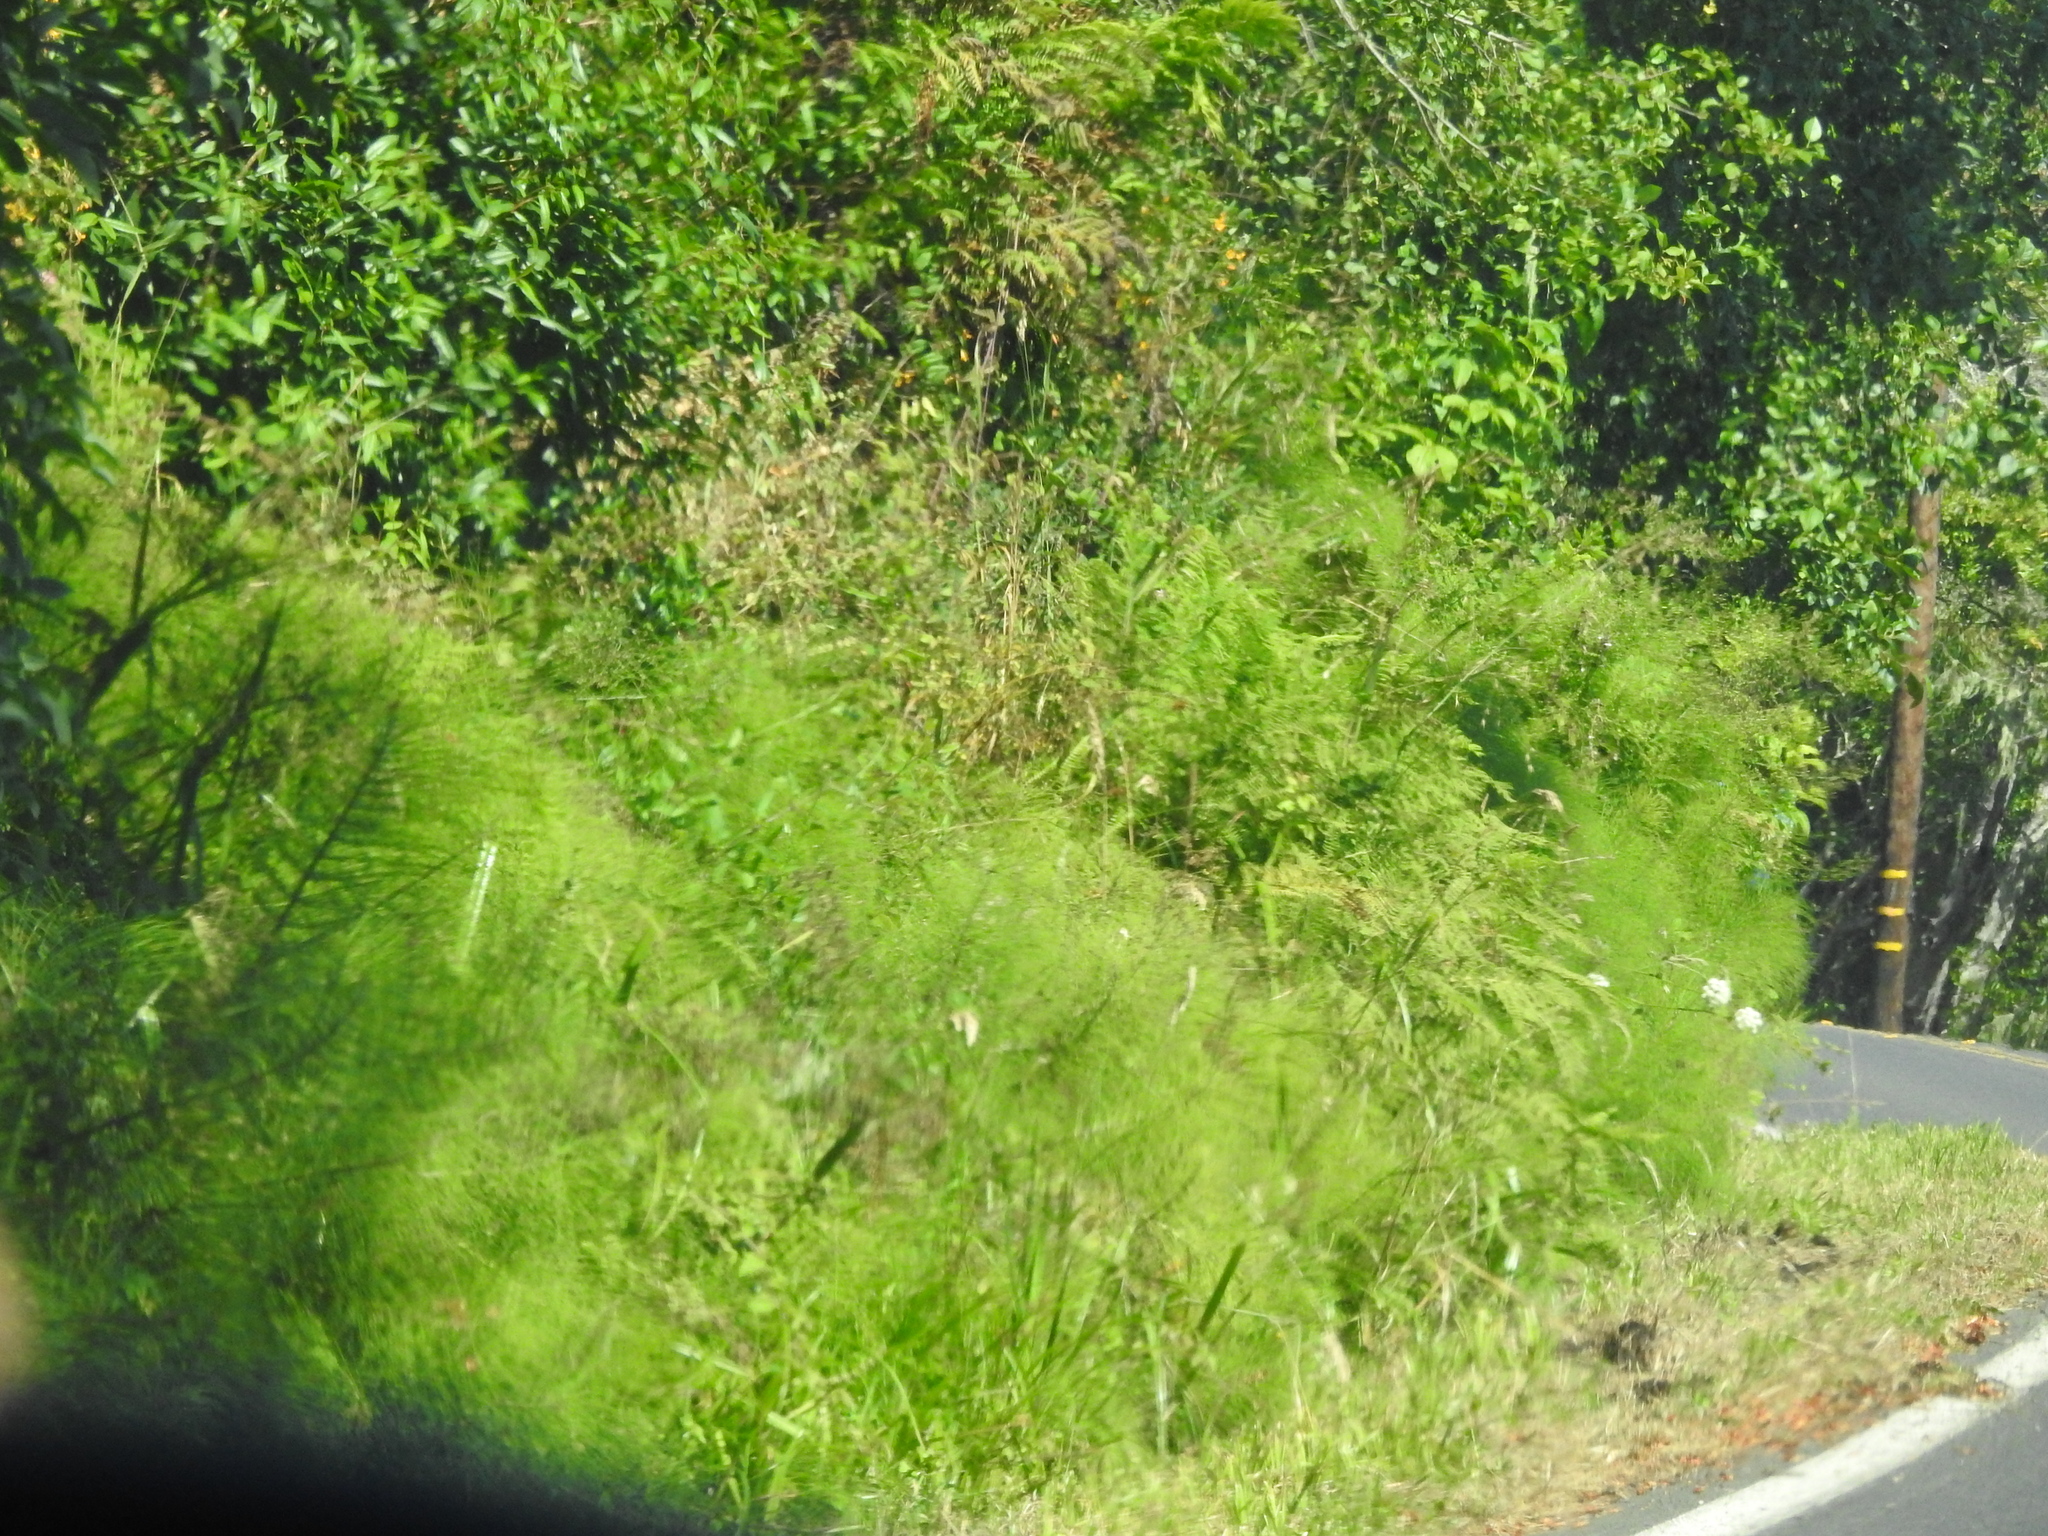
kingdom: Plantae
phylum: Tracheophyta
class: Polypodiopsida
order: Equisetales
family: Equisetaceae
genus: Equisetum
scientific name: Equisetum telmateia
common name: Great horsetail
